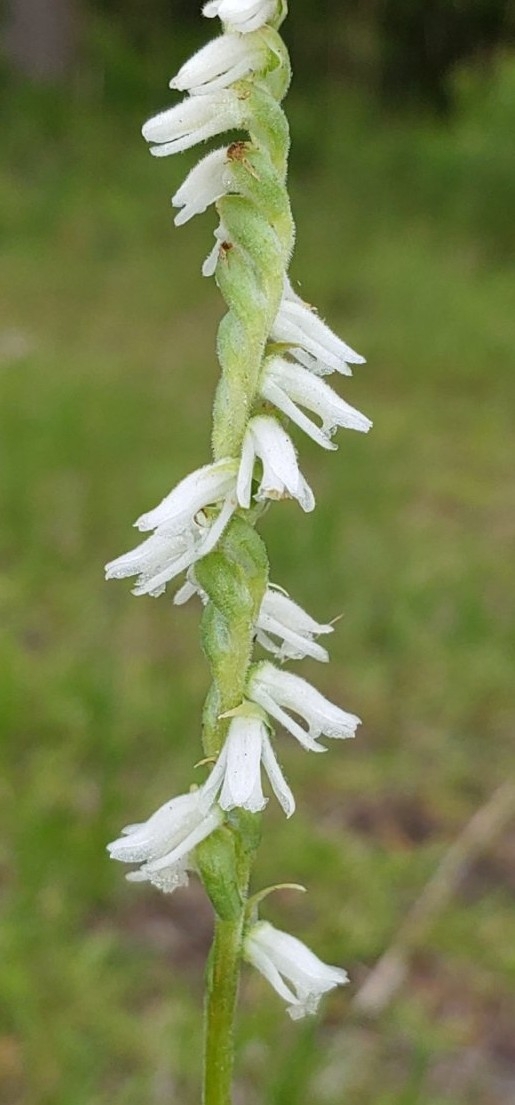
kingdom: Plantae
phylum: Tracheophyta
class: Liliopsida
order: Asparagales
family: Orchidaceae
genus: Spiranthes
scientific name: Spiranthes vernalis
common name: Spring ladies'-tresses
